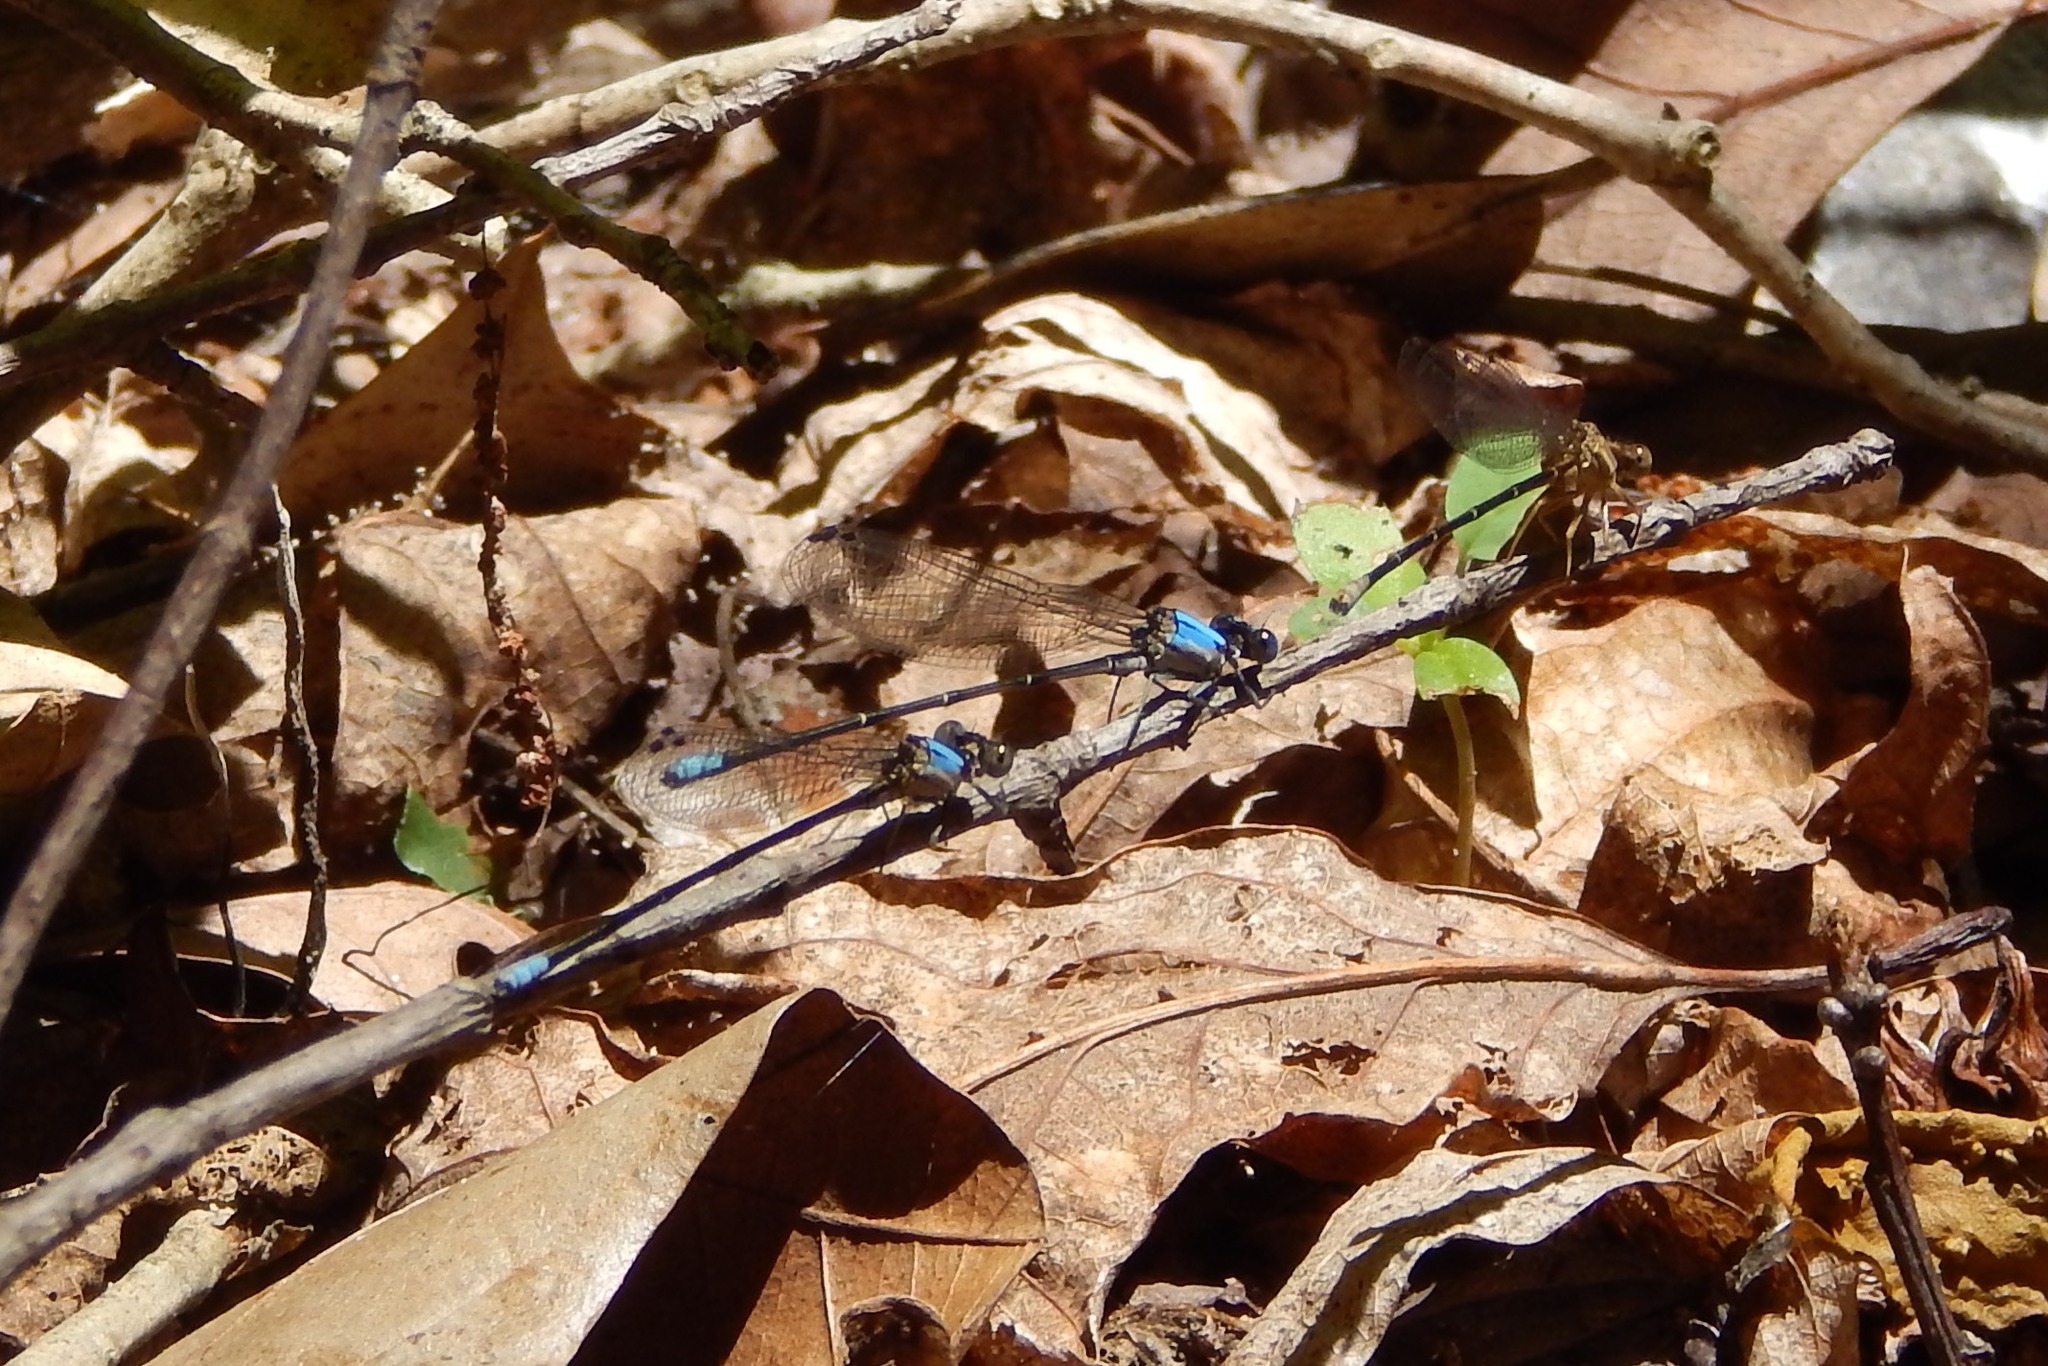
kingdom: Animalia
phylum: Arthropoda
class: Insecta
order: Odonata
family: Coenagrionidae
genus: Argia
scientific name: Argia apicalis
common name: Blue-fronted dancer
